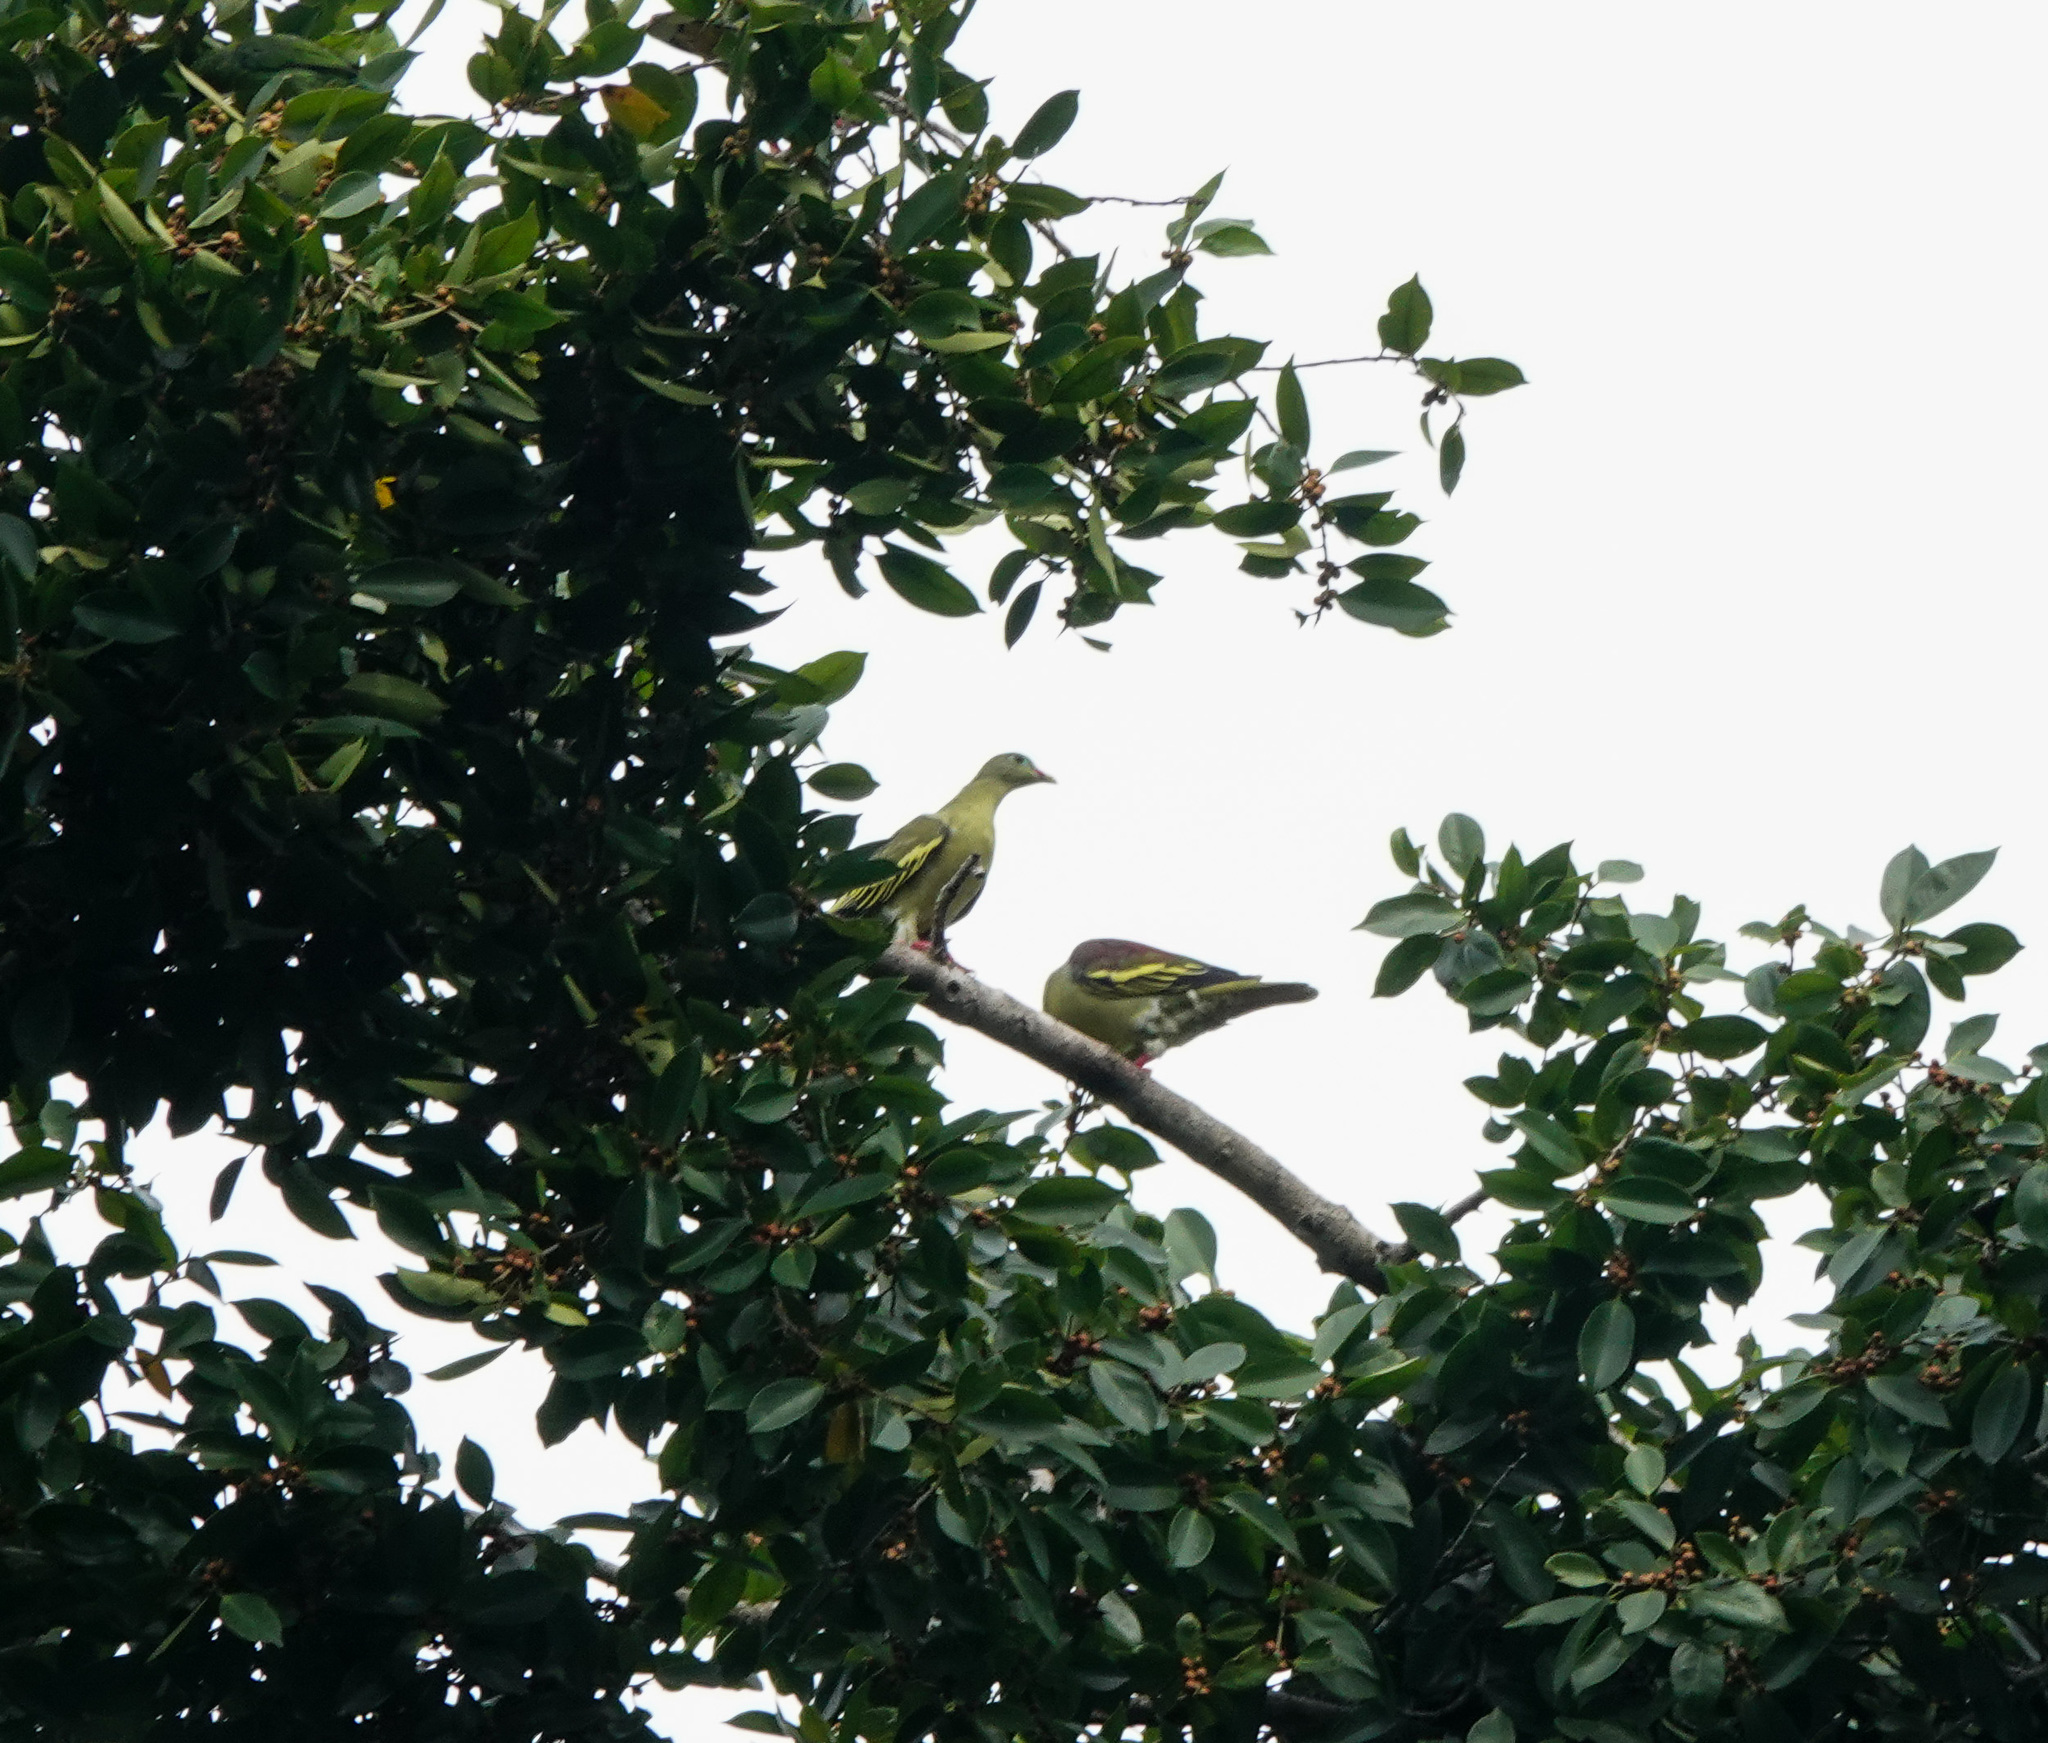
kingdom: Animalia
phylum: Chordata
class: Aves
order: Columbiformes
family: Columbidae
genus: Treron
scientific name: Treron curvirostra
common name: Thick-billed green pigeon
